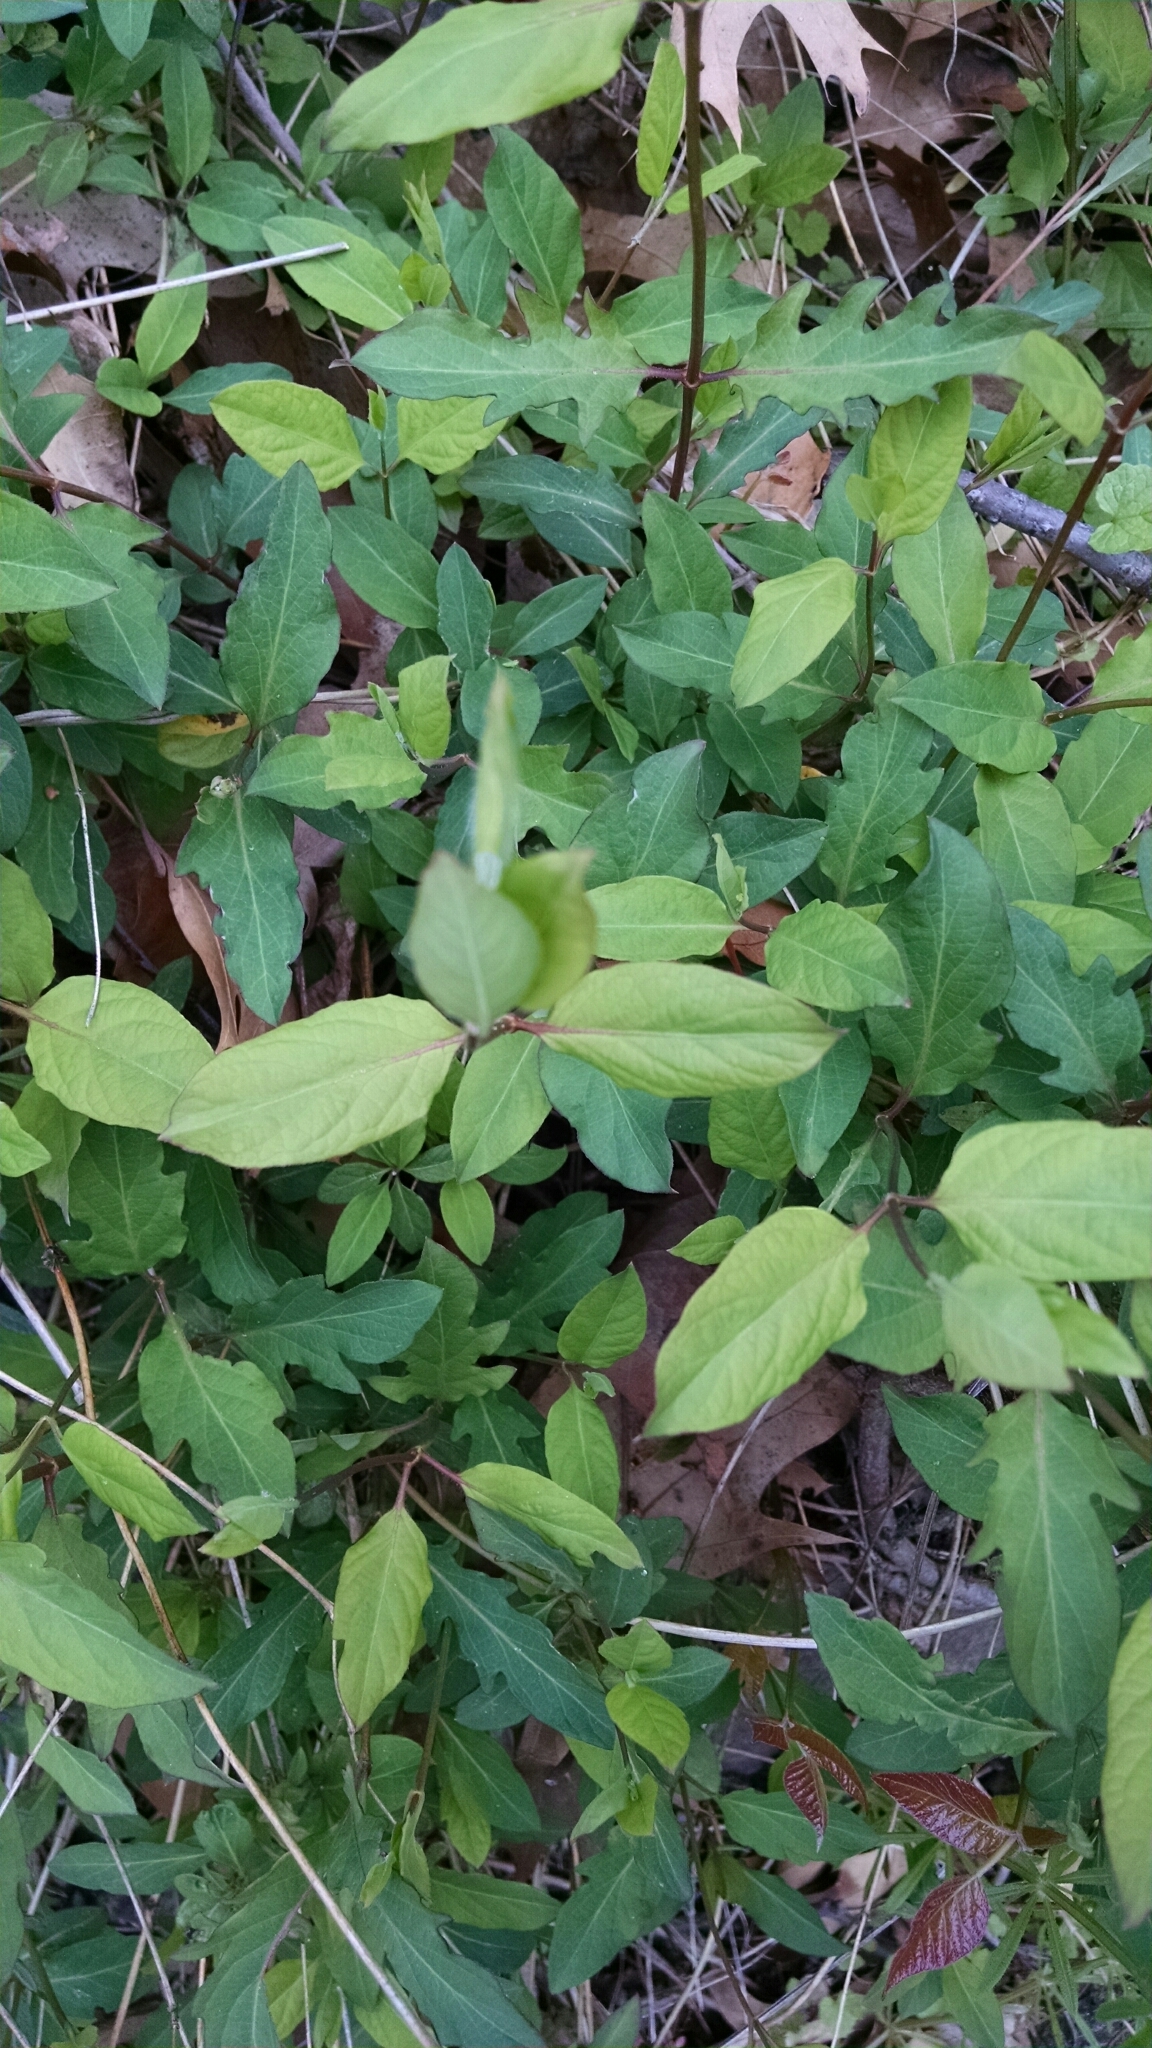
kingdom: Plantae
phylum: Tracheophyta
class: Magnoliopsida
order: Dipsacales
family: Caprifoliaceae
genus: Lonicera
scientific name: Lonicera japonica
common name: Japanese honeysuckle
